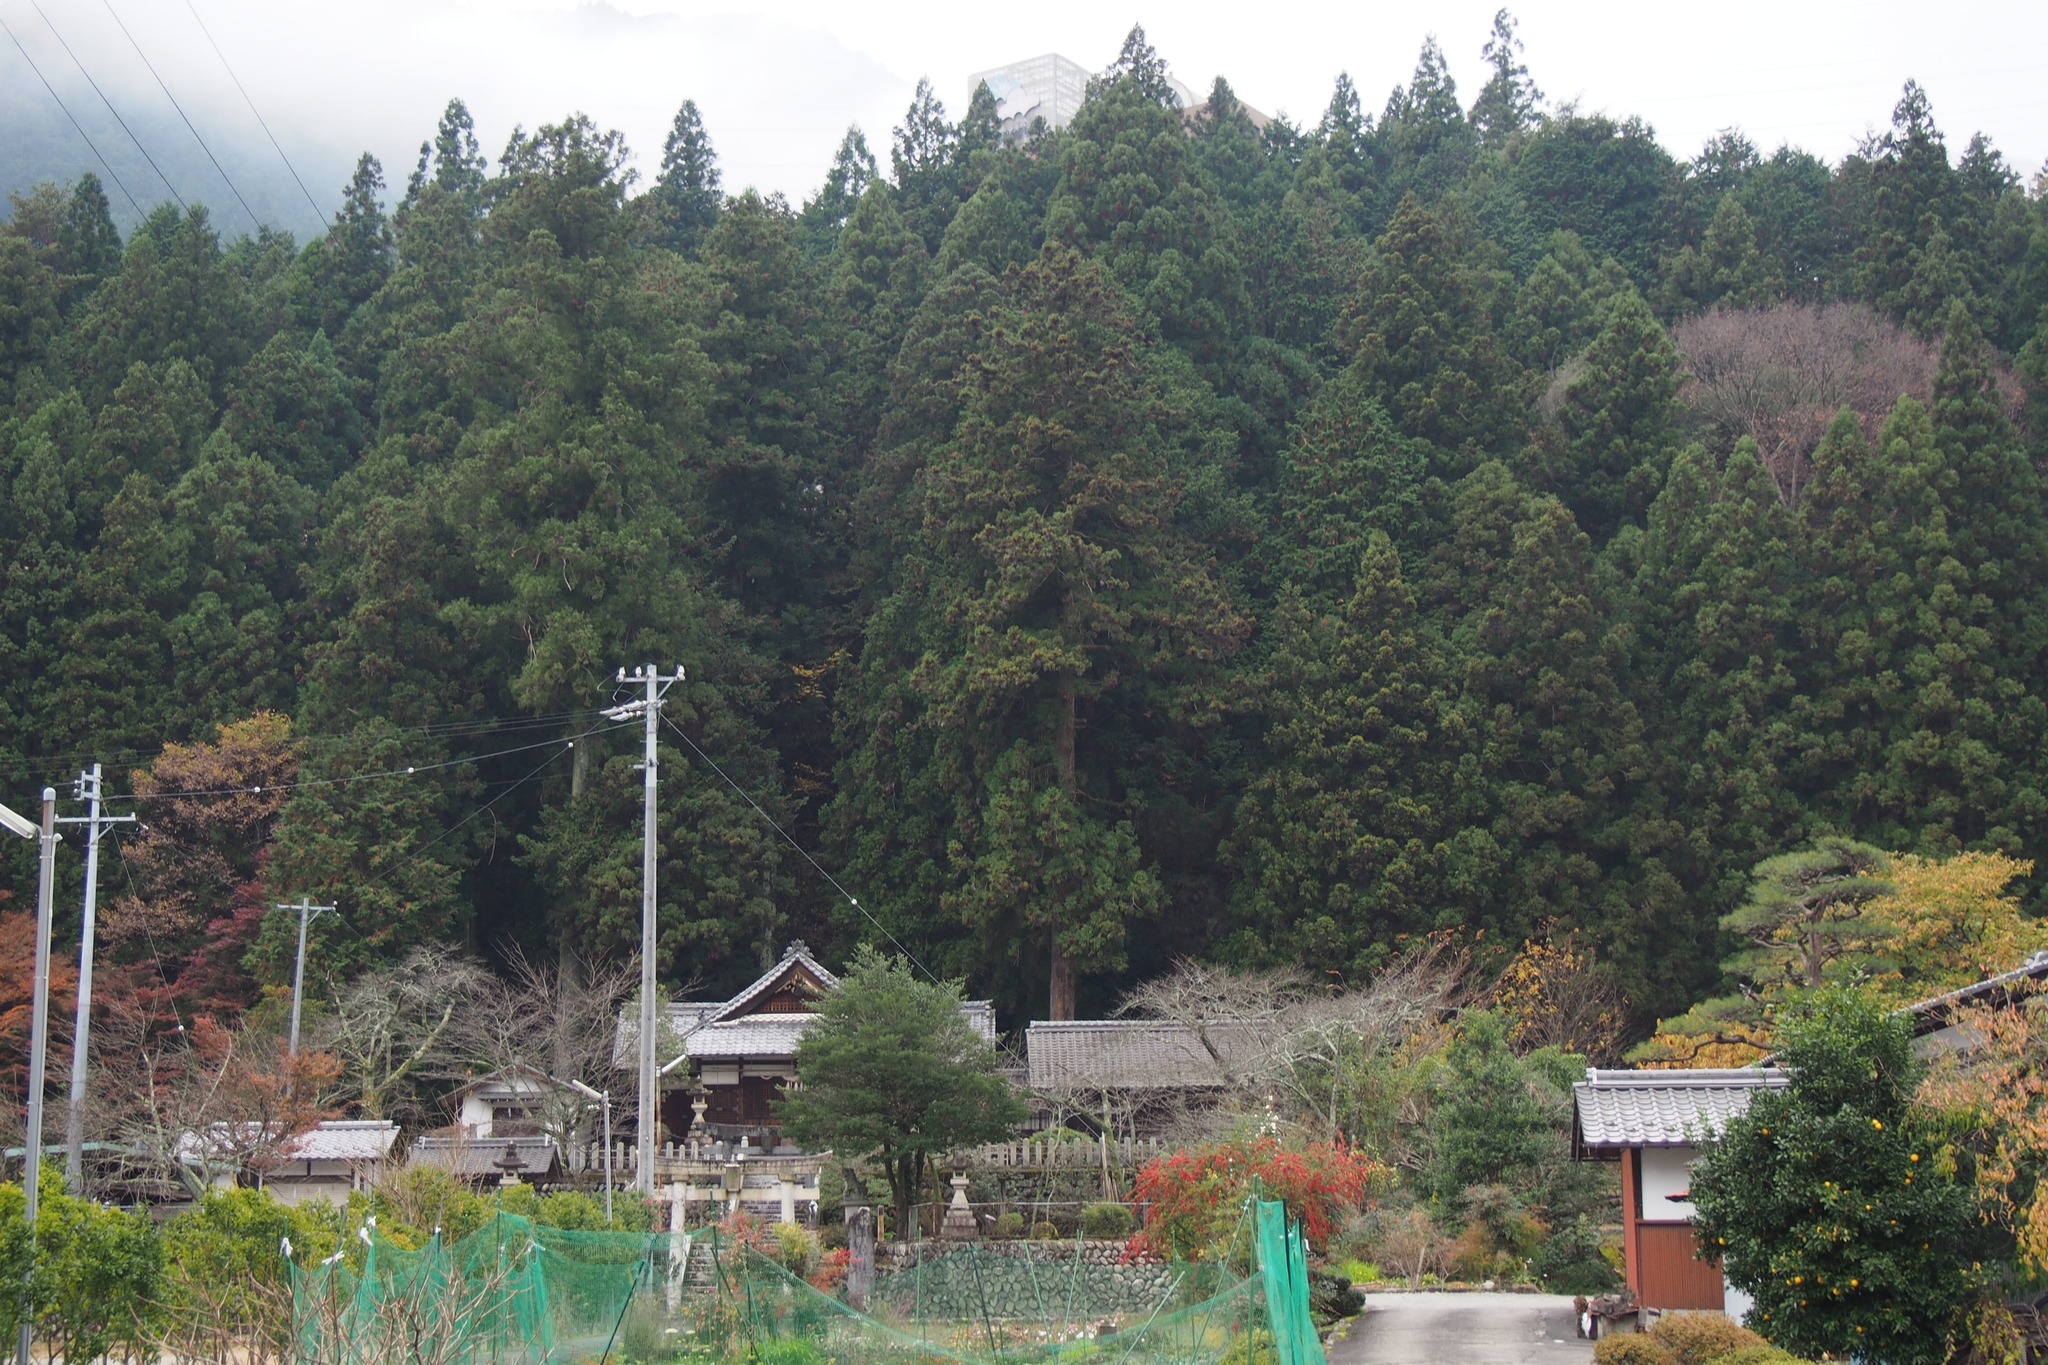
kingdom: Plantae
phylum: Tracheophyta
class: Pinopsida
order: Pinales
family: Cupressaceae
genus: Cryptomeria
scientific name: Cryptomeria japonica
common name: Japanese cedar
